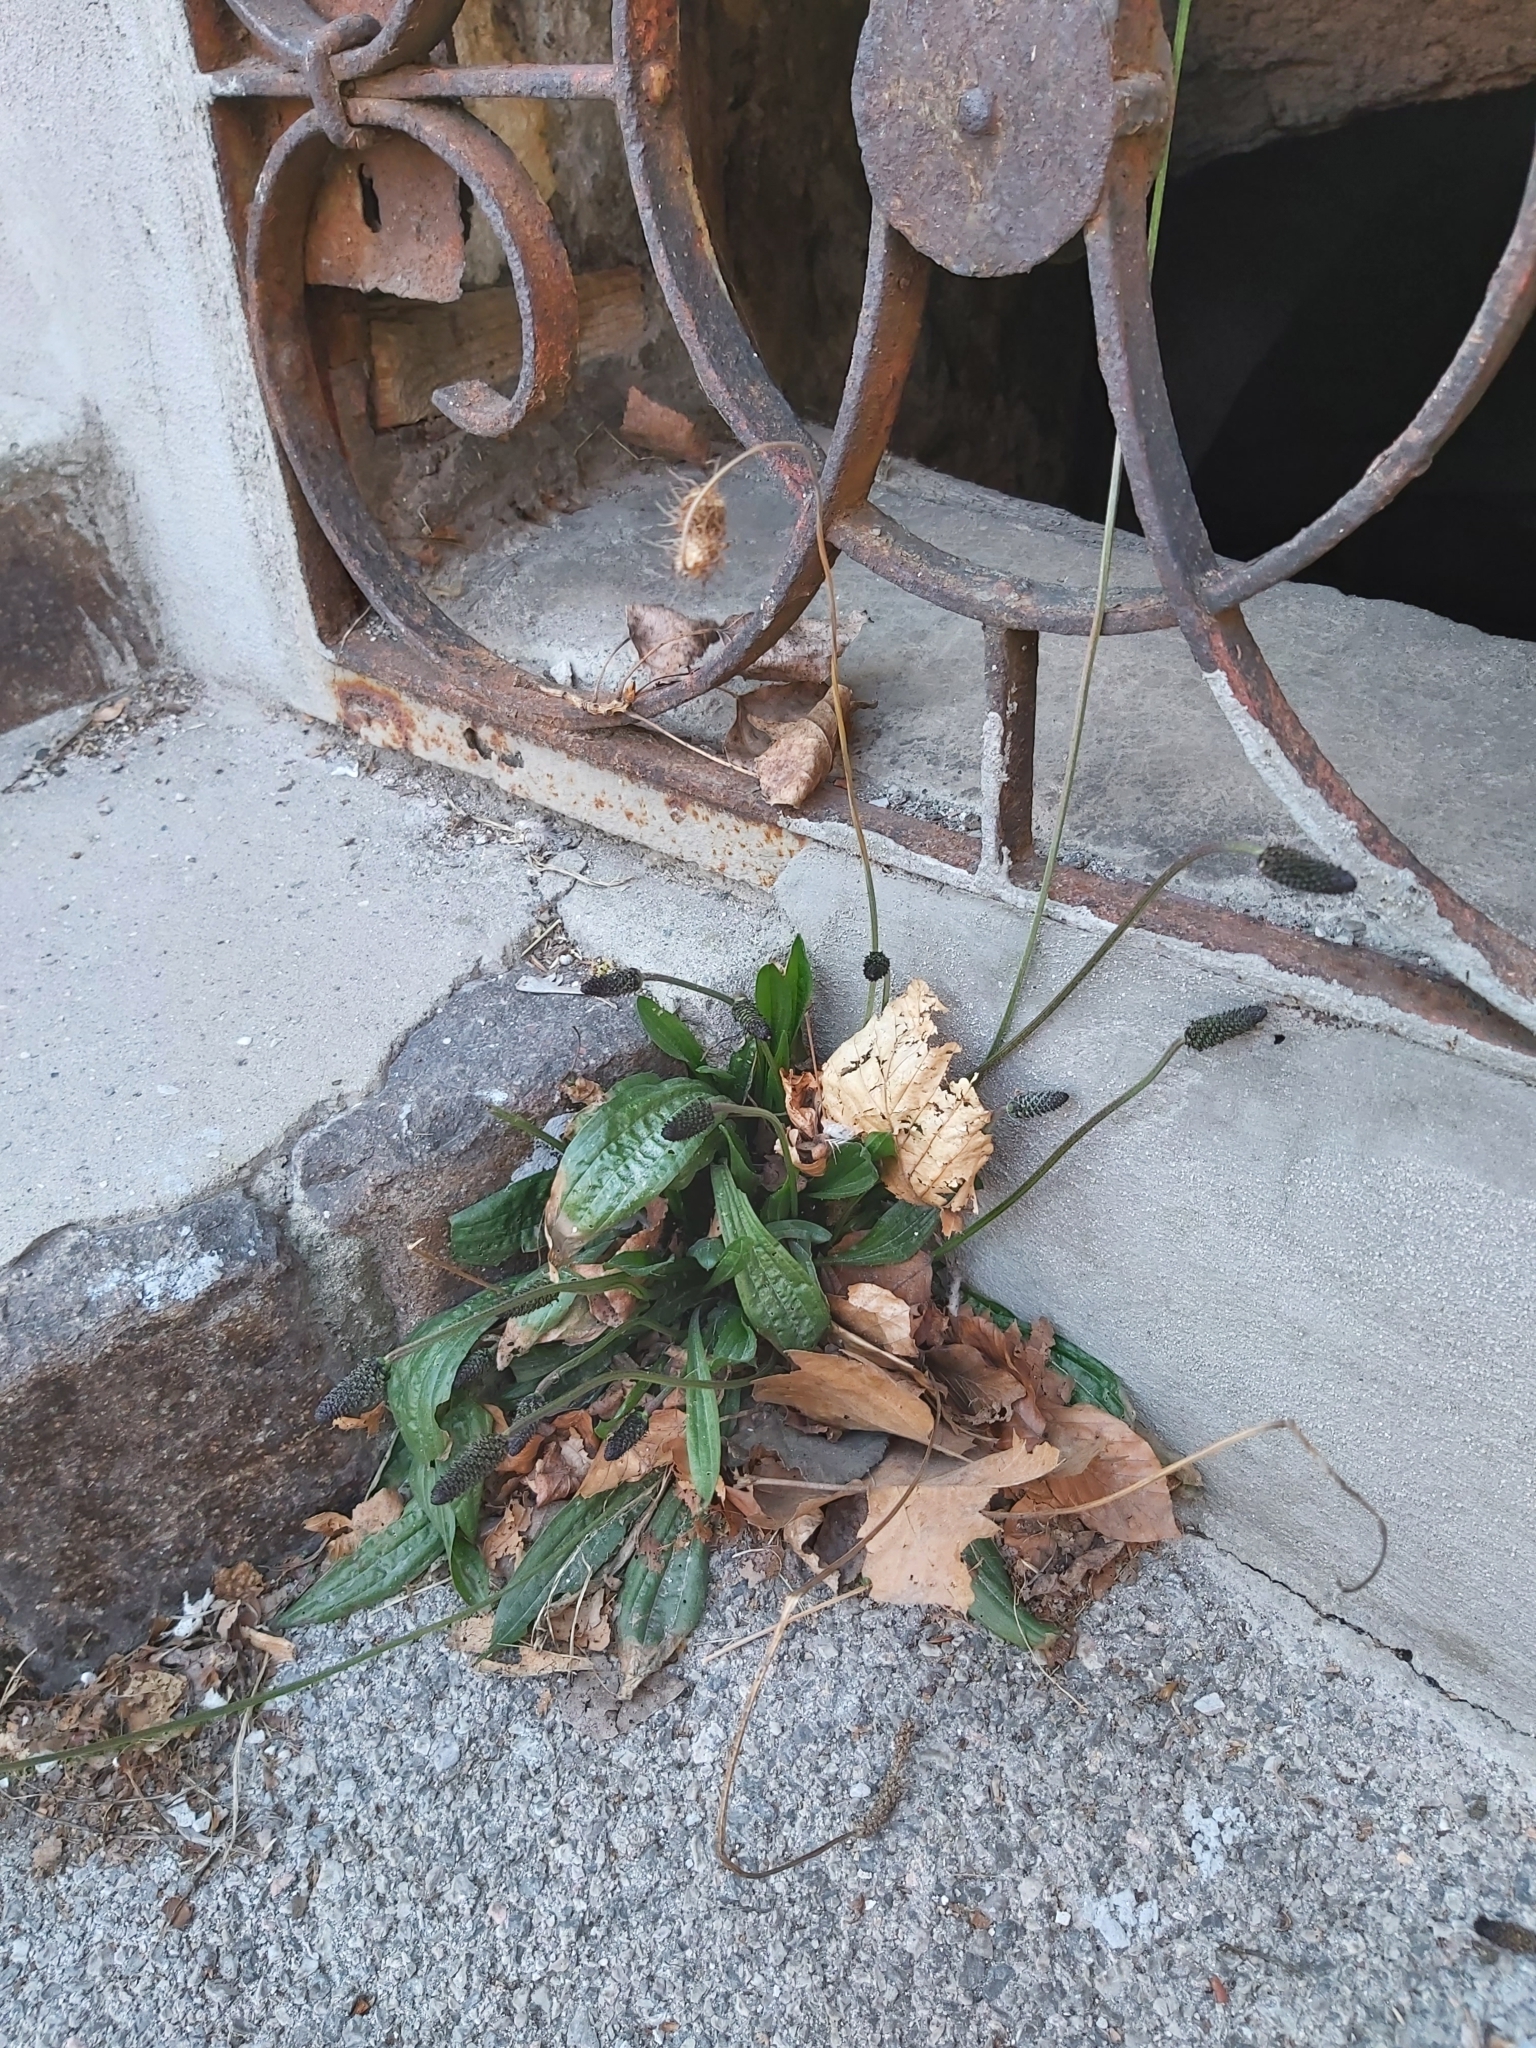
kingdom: Plantae
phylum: Tracheophyta
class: Magnoliopsida
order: Lamiales
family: Plantaginaceae
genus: Plantago
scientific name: Plantago lanceolata
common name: Ribwort plantain
